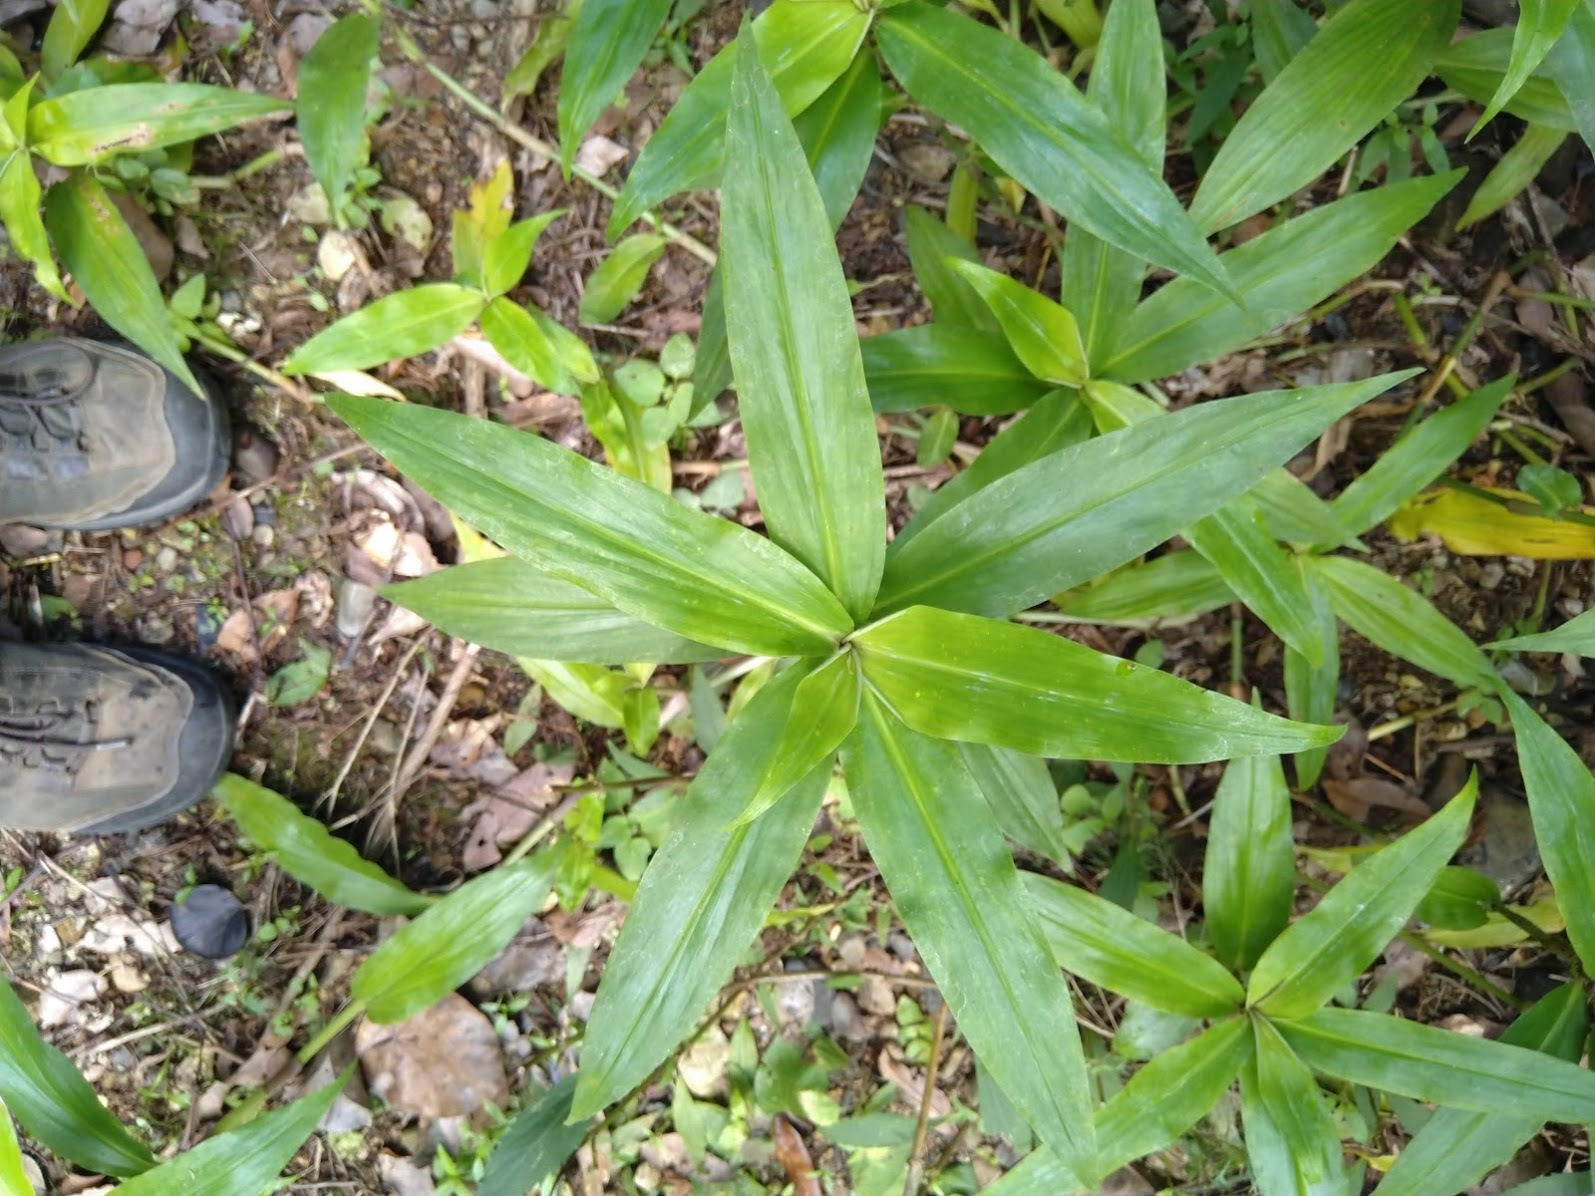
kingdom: Plantae
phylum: Tracheophyta
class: Liliopsida
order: Commelinales
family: Commelinaceae
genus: Pollia
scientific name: Pollia crispata
